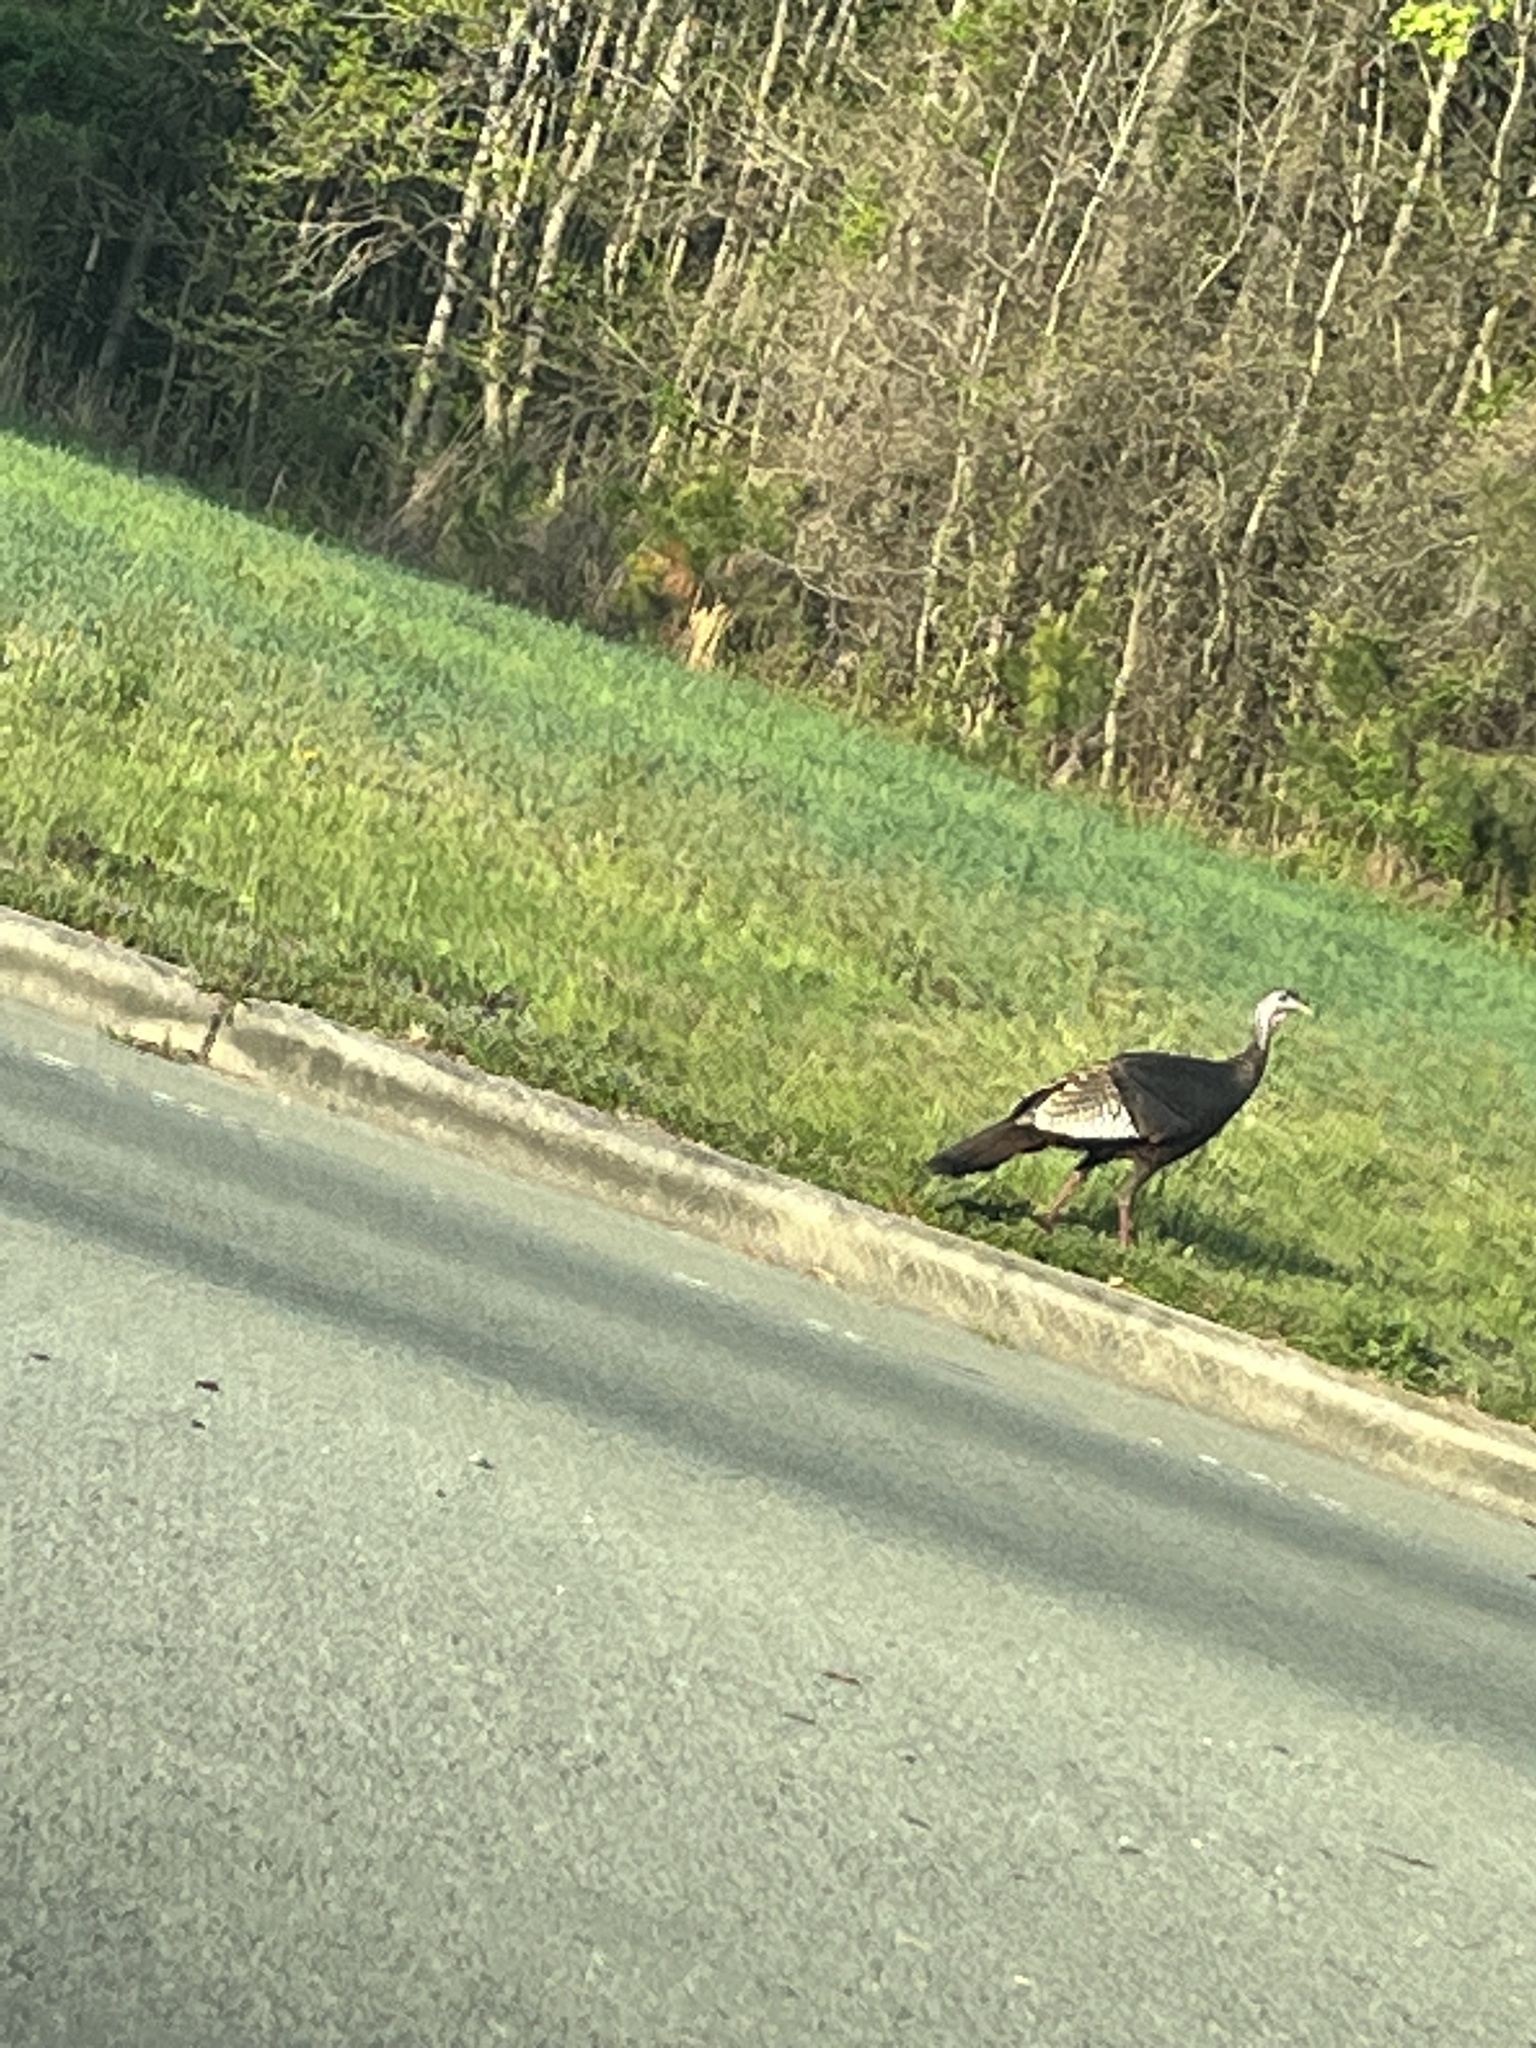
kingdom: Animalia
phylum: Chordata
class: Aves
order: Galliformes
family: Phasianidae
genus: Meleagris
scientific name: Meleagris gallopavo
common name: Wild turkey
